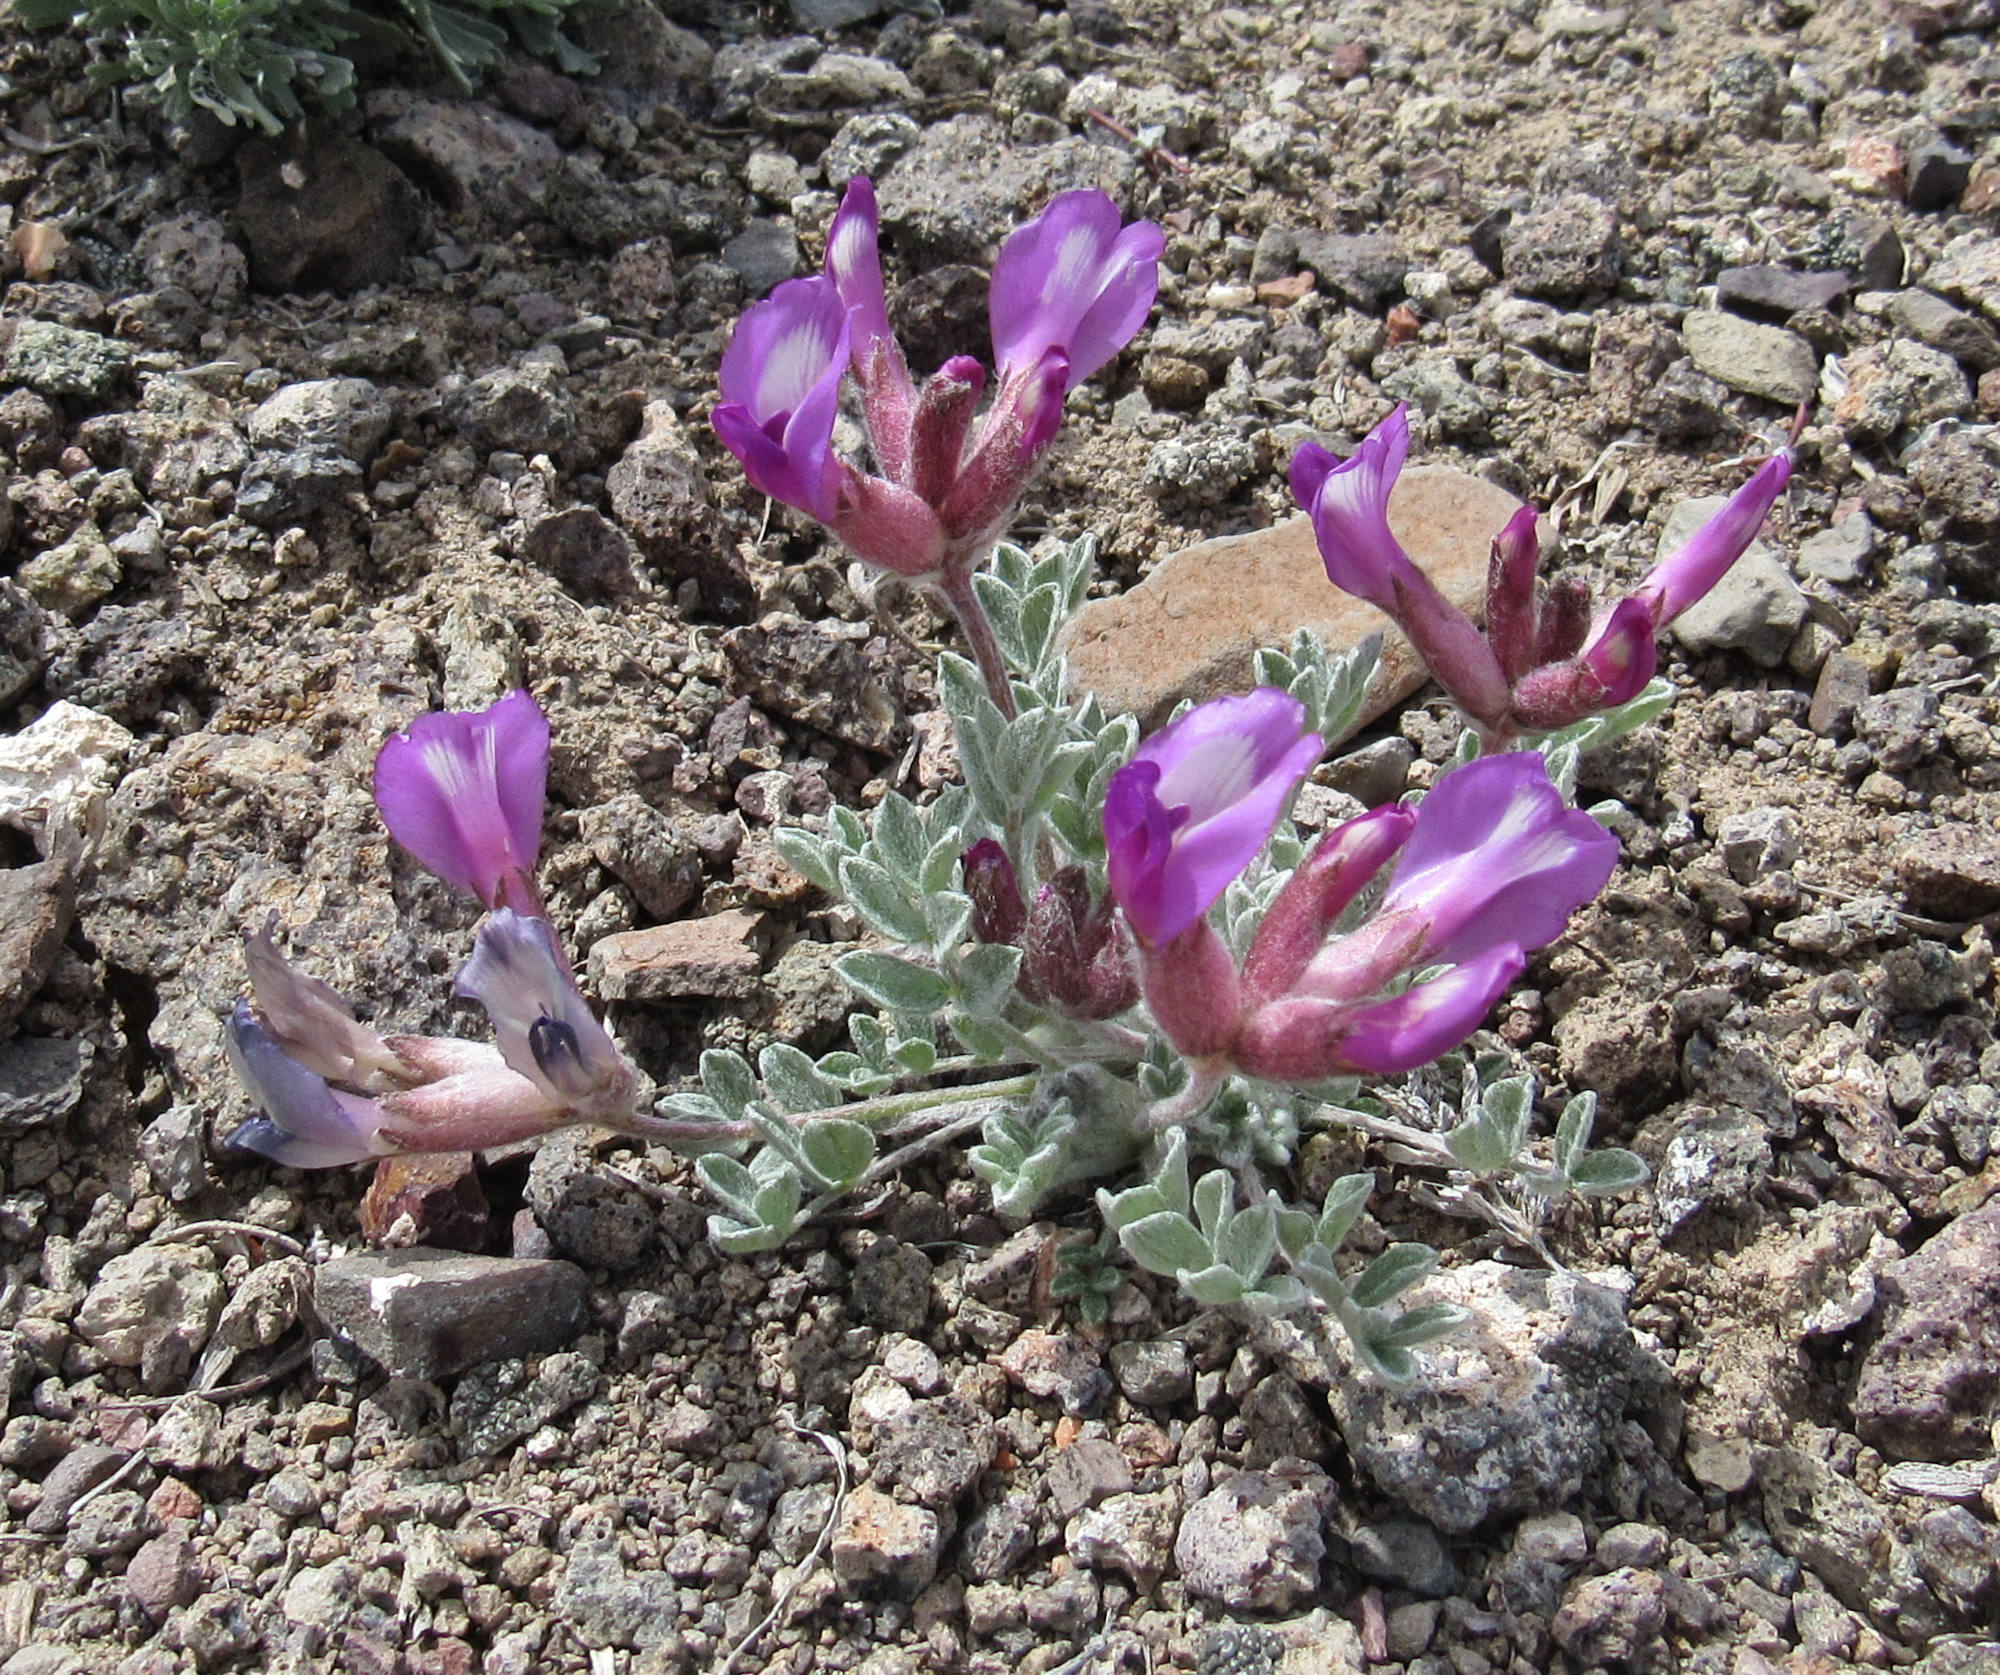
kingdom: Plantae
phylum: Tracheophyta
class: Magnoliopsida
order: Fabales
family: Fabaceae
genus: Astragalus
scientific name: Astragalus purshii
